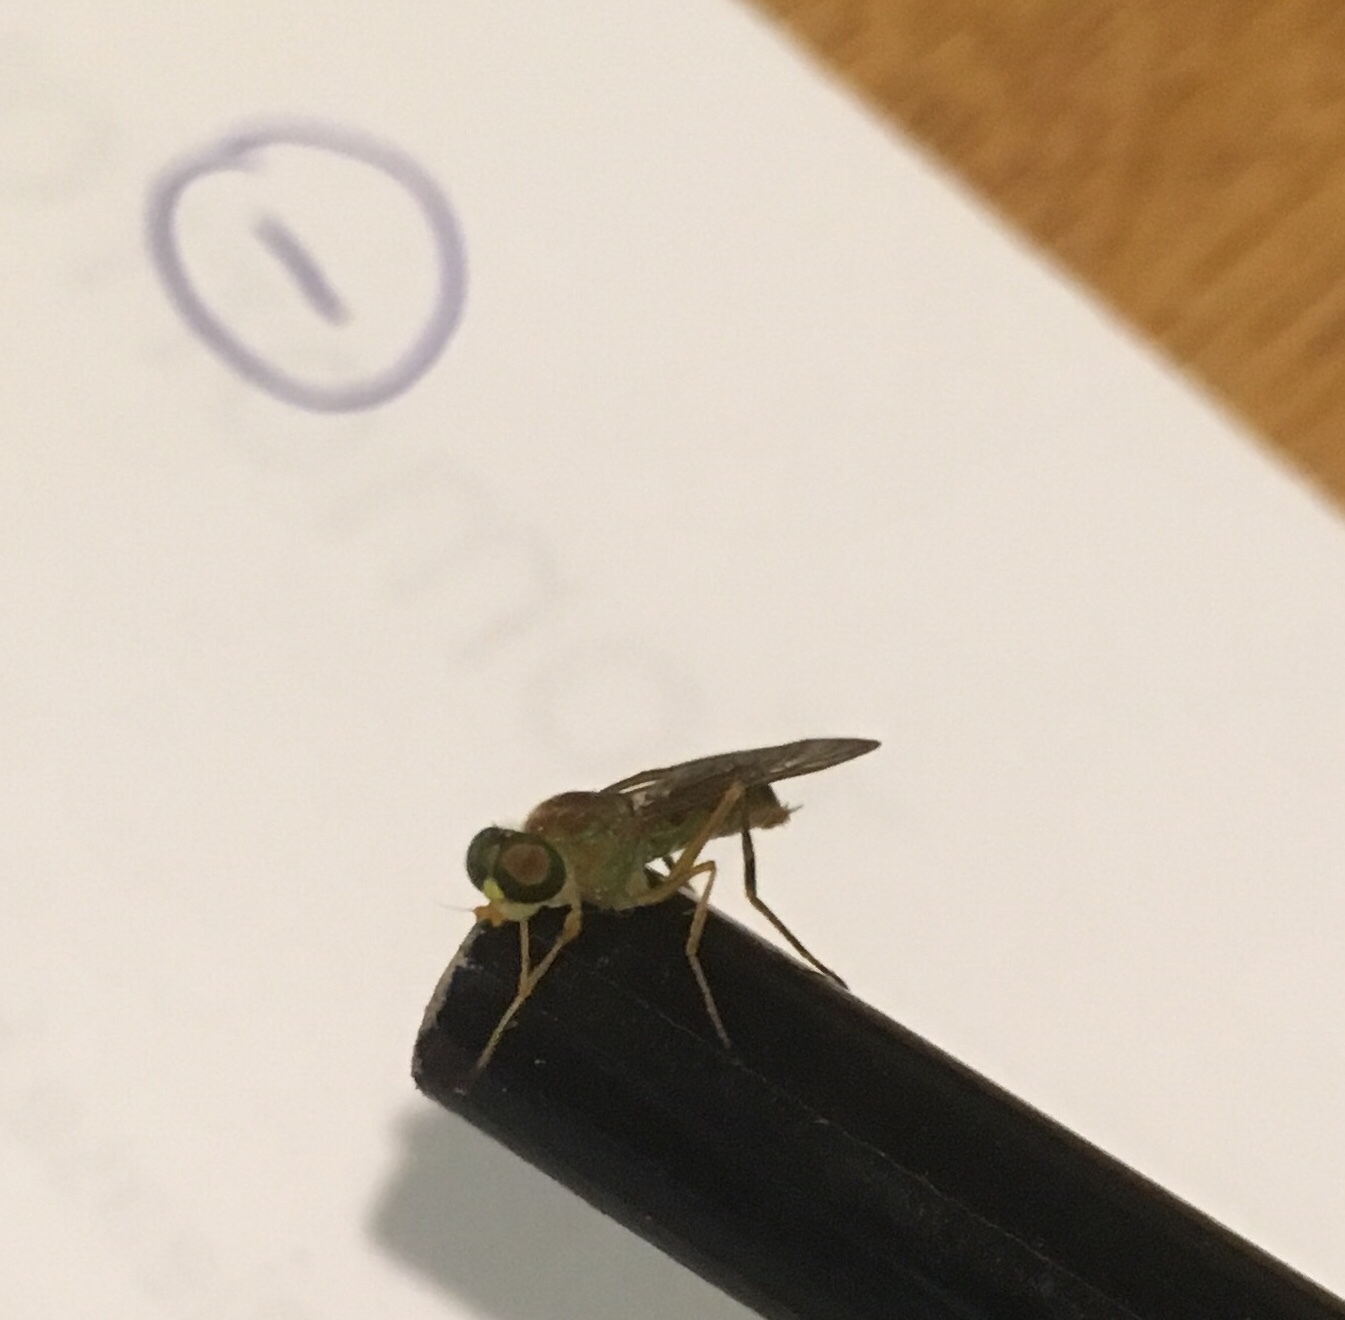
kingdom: Animalia
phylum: Arthropoda
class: Insecta
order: Diptera
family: Stratiomyidae
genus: Ptecticus
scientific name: Ptecticus trivittatus
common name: Compost fly
